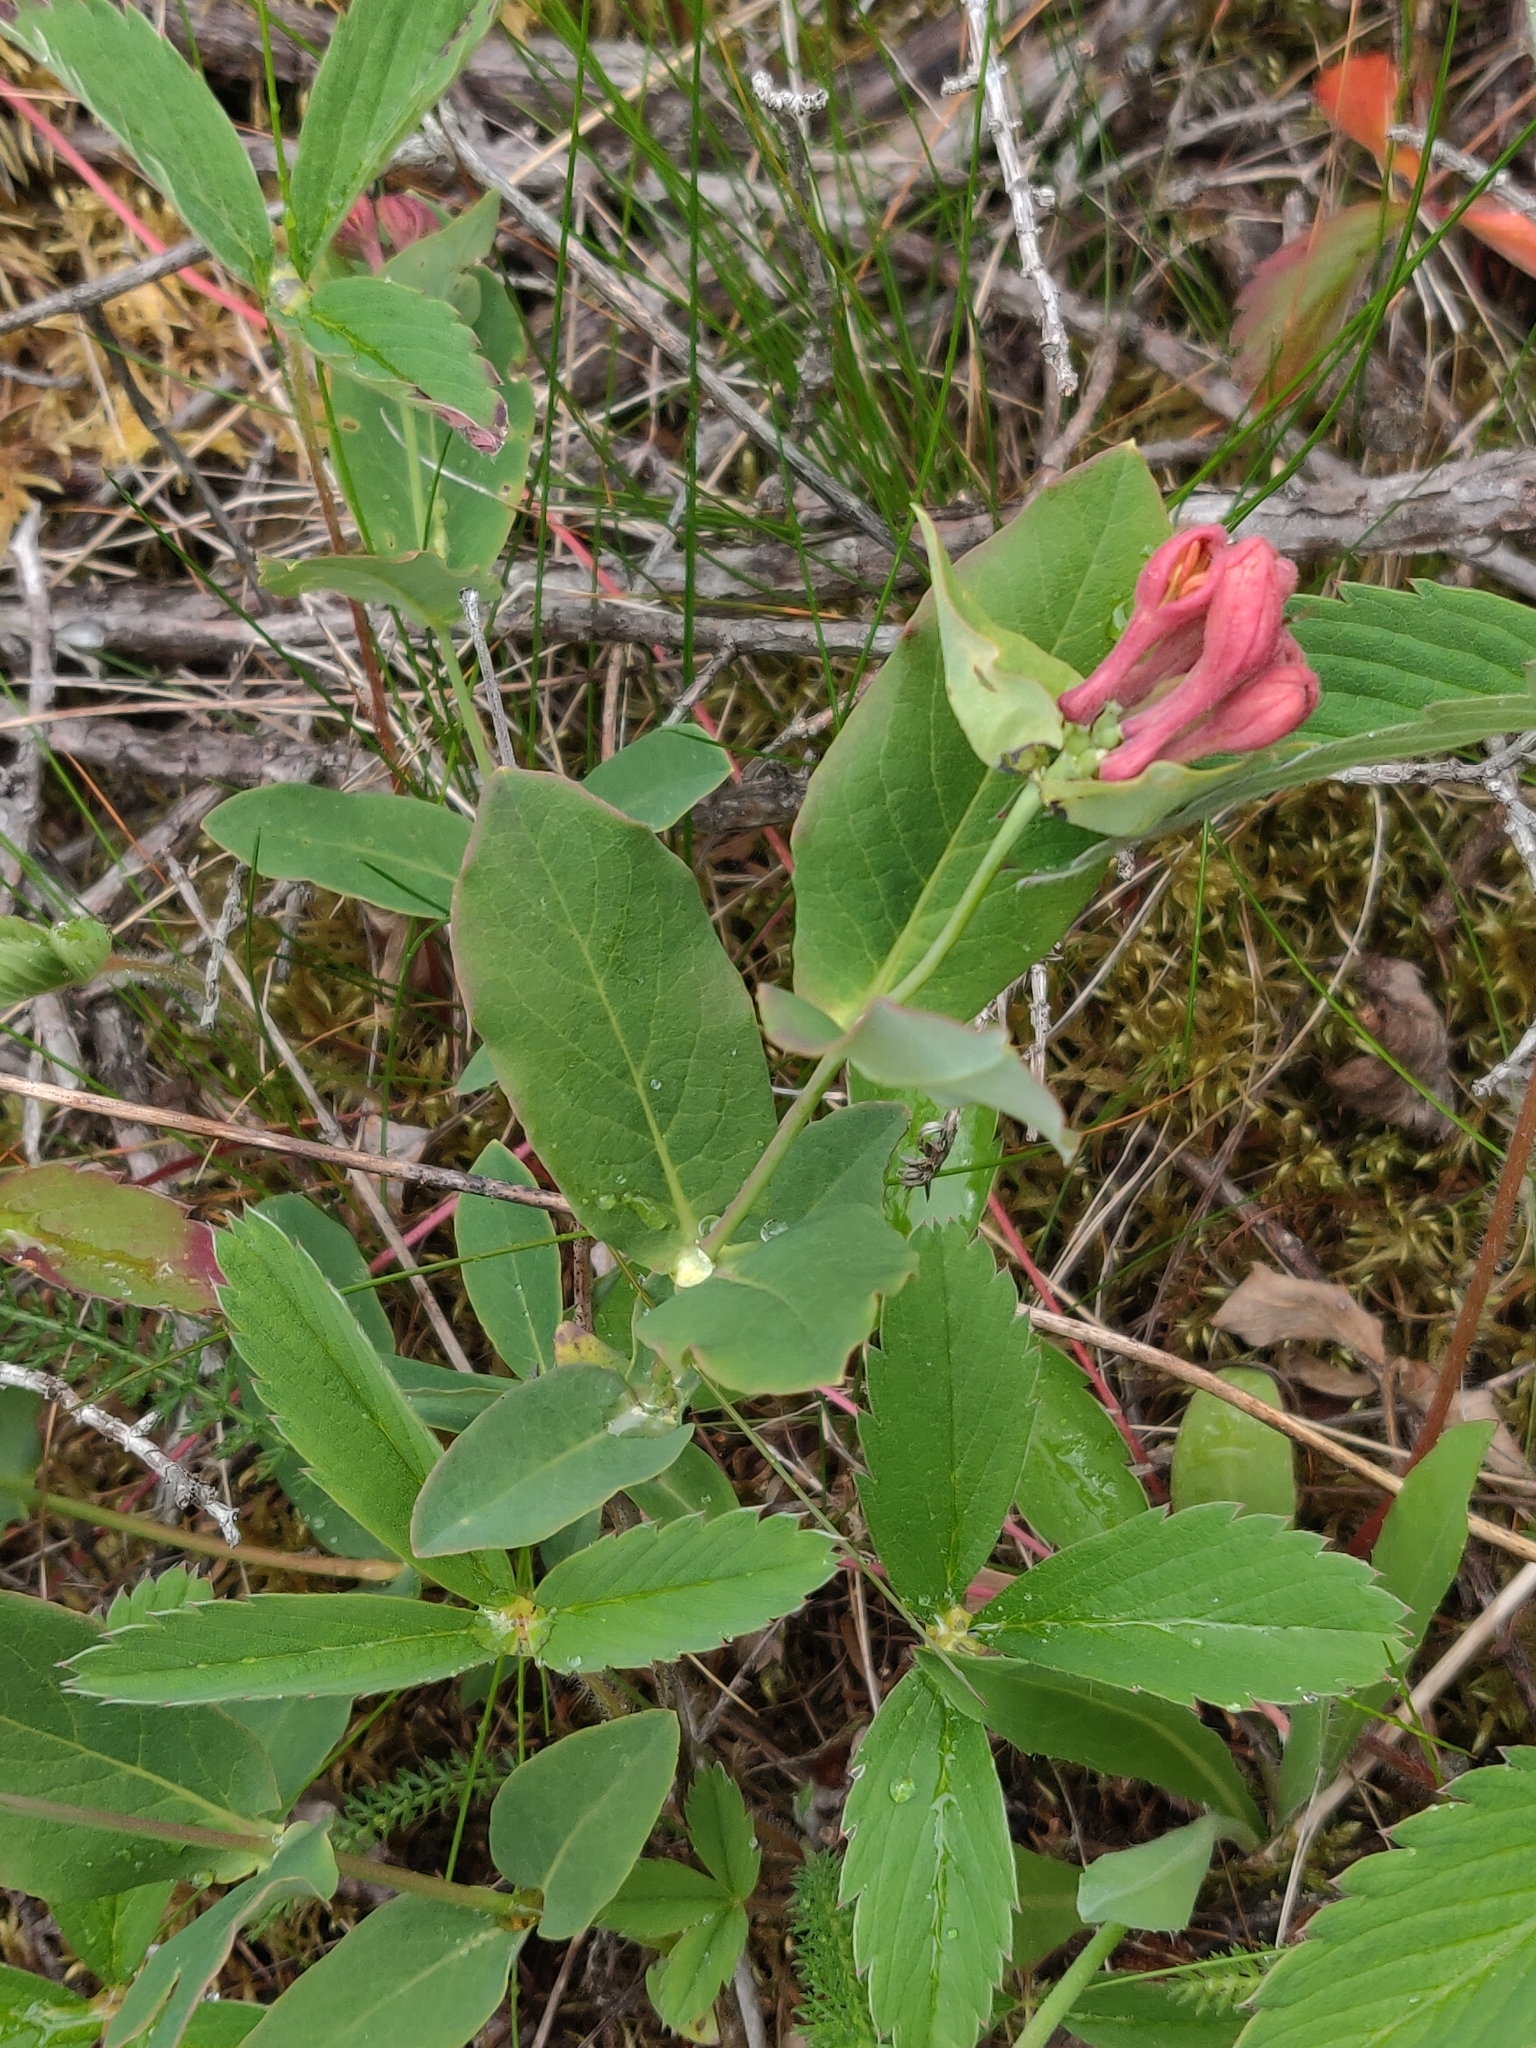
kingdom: Plantae
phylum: Tracheophyta
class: Magnoliopsida
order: Dipsacales
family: Caprifoliaceae
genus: Lonicera
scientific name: Lonicera dioica
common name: Limber honeysuckle
